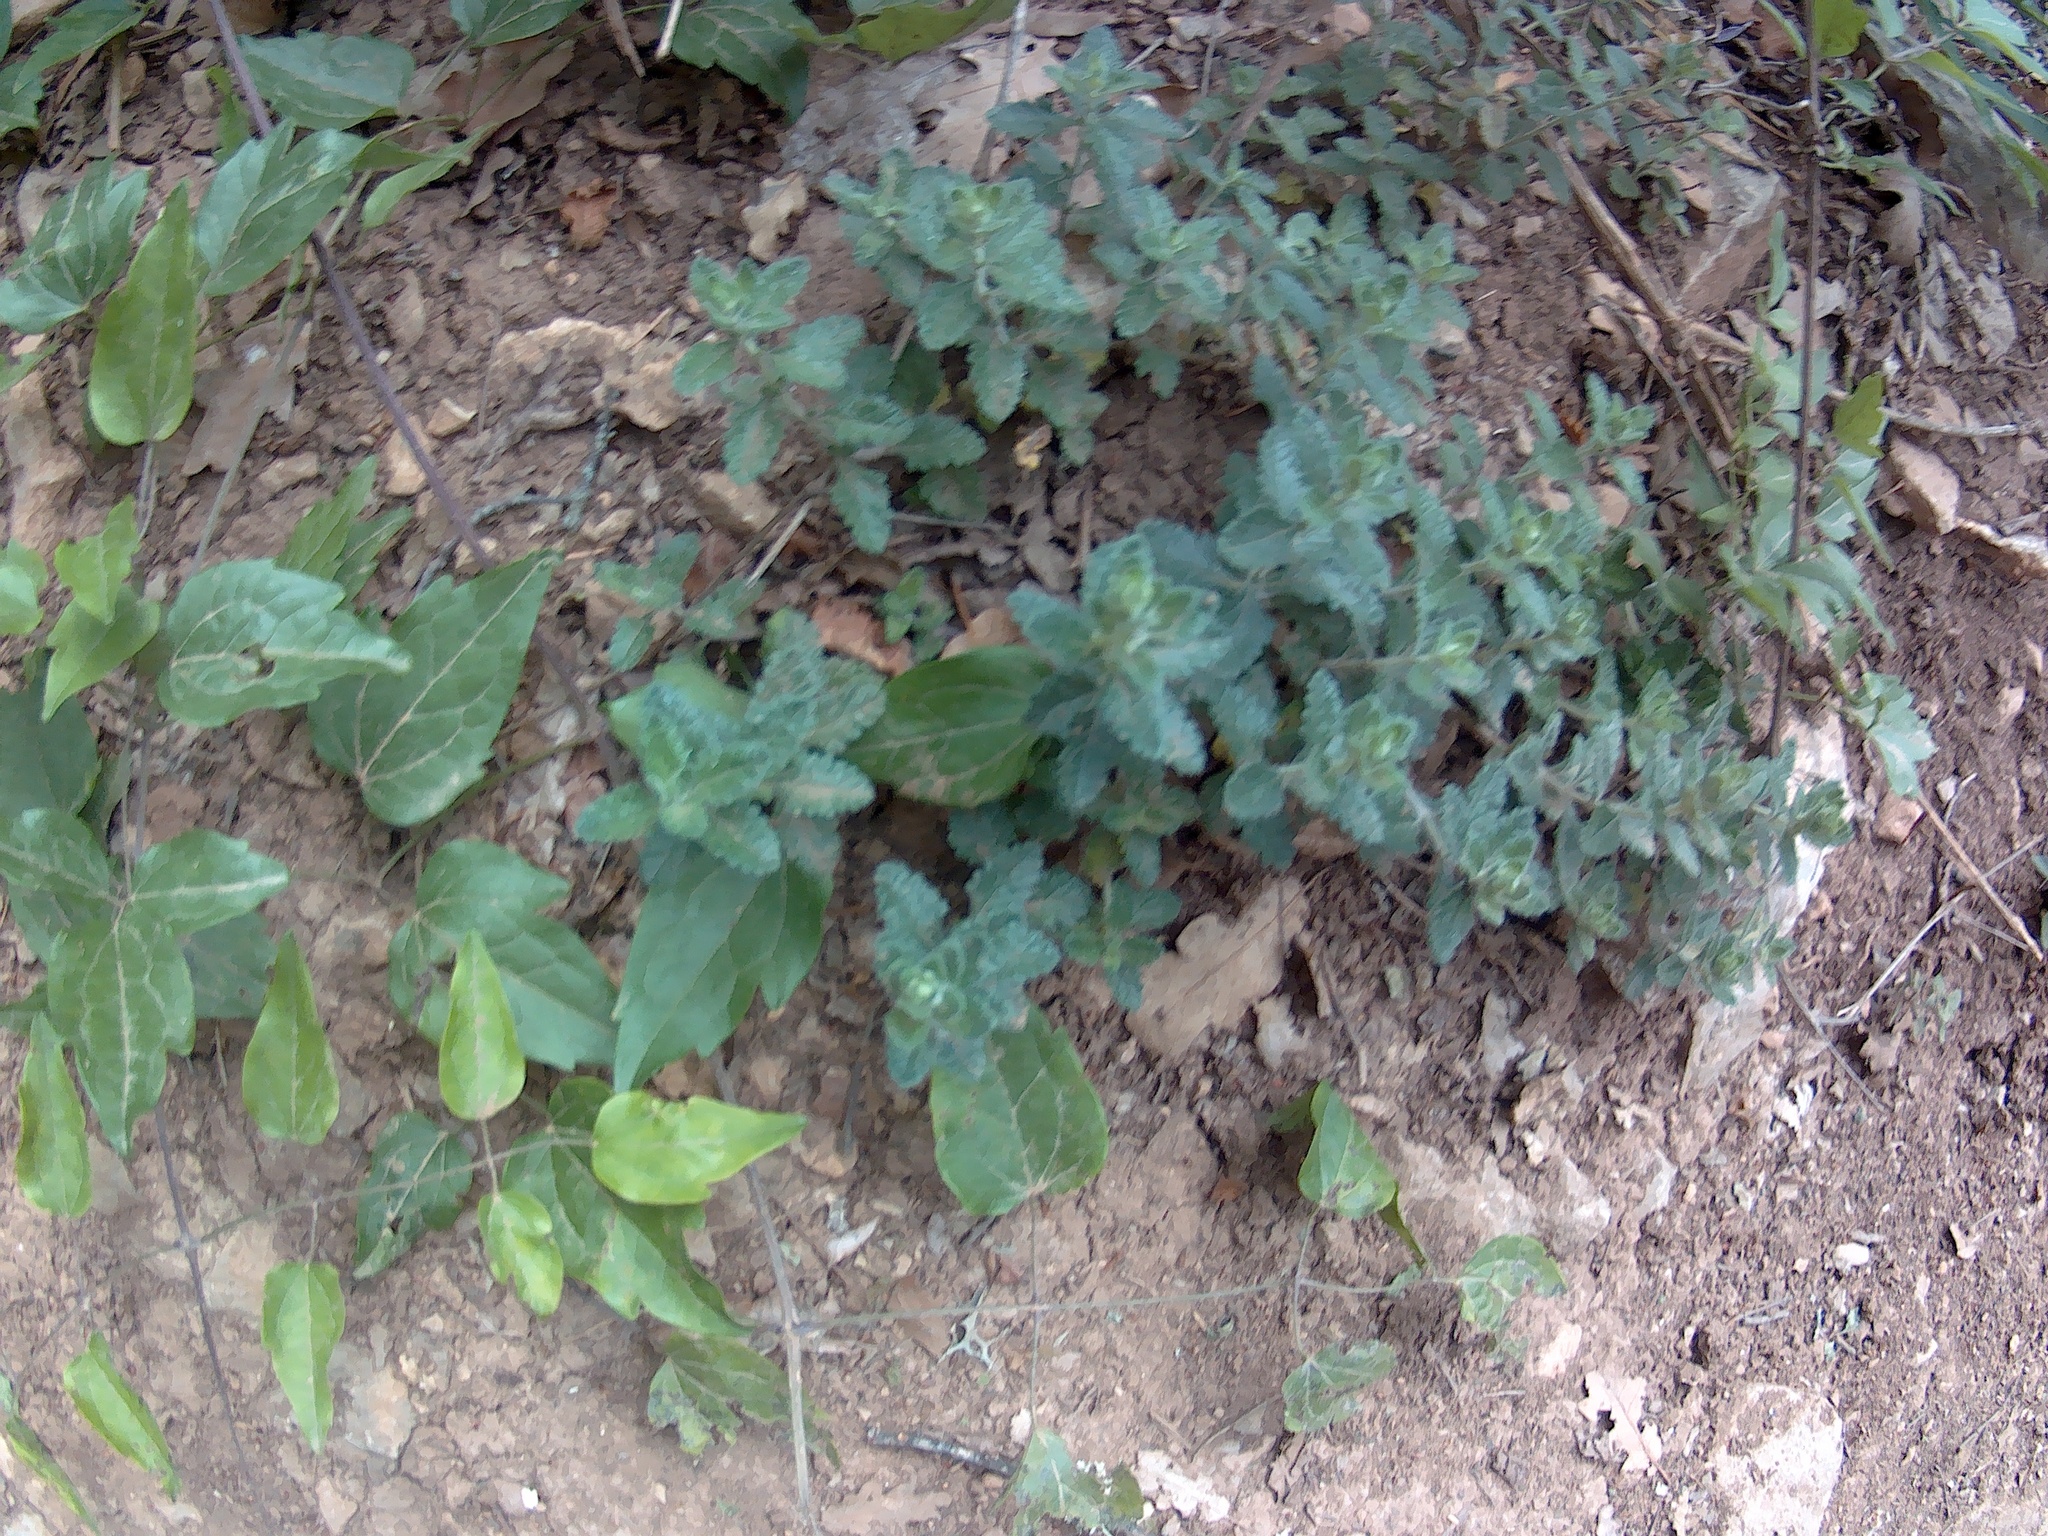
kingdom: Plantae
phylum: Tracheophyta
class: Magnoliopsida
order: Lamiales
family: Lamiaceae
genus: Teucrium
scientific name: Teucrium chamaedrys
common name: Wall germander
